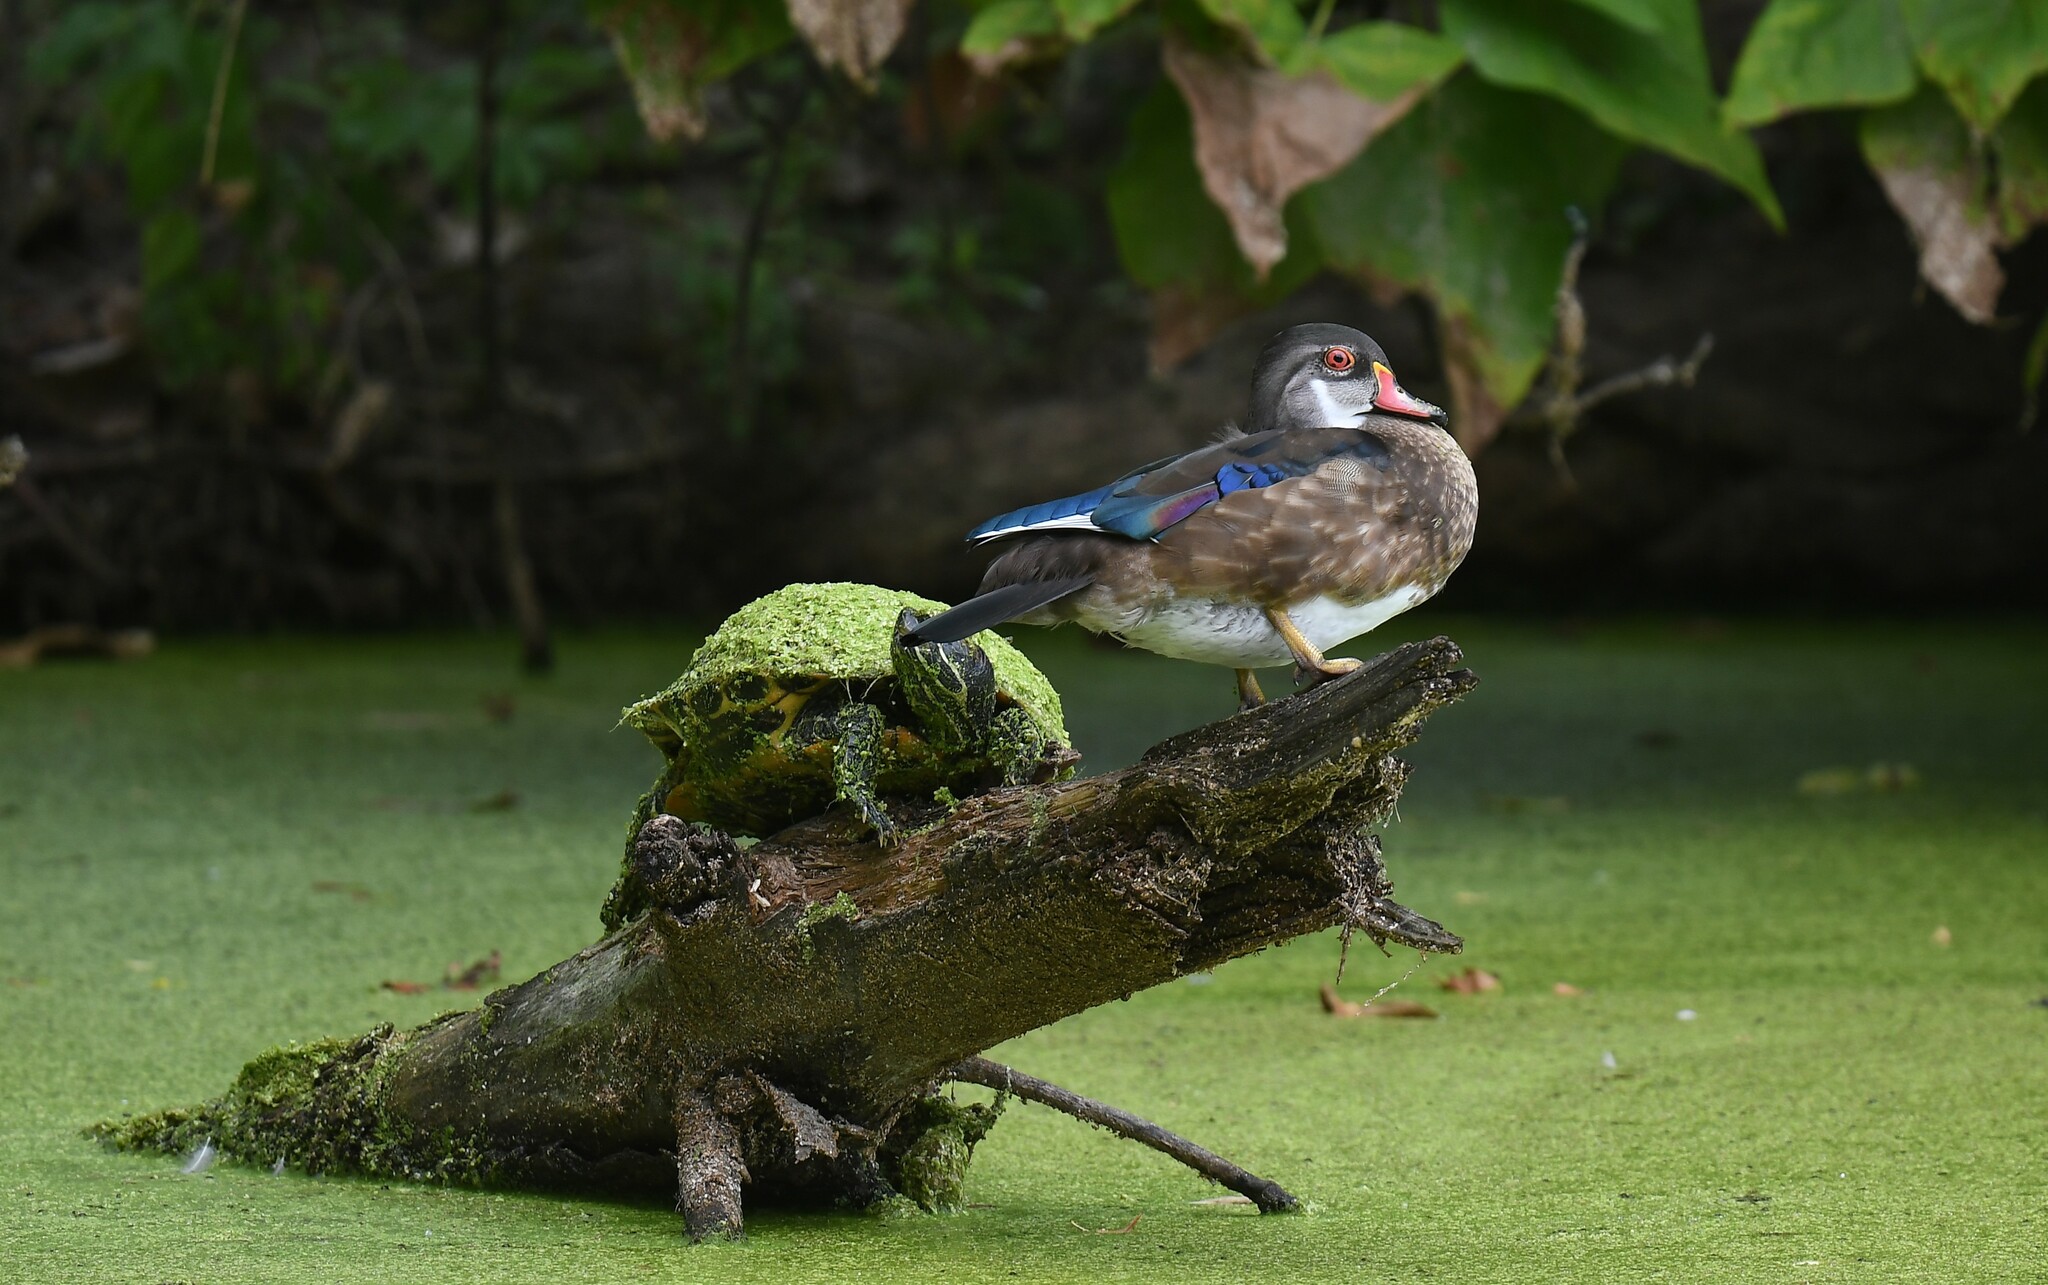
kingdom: Animalia
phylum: Chordata
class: Aves
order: Anseriformes
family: Anatidae
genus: Aix
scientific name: Aix sponsa
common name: Wood duck
